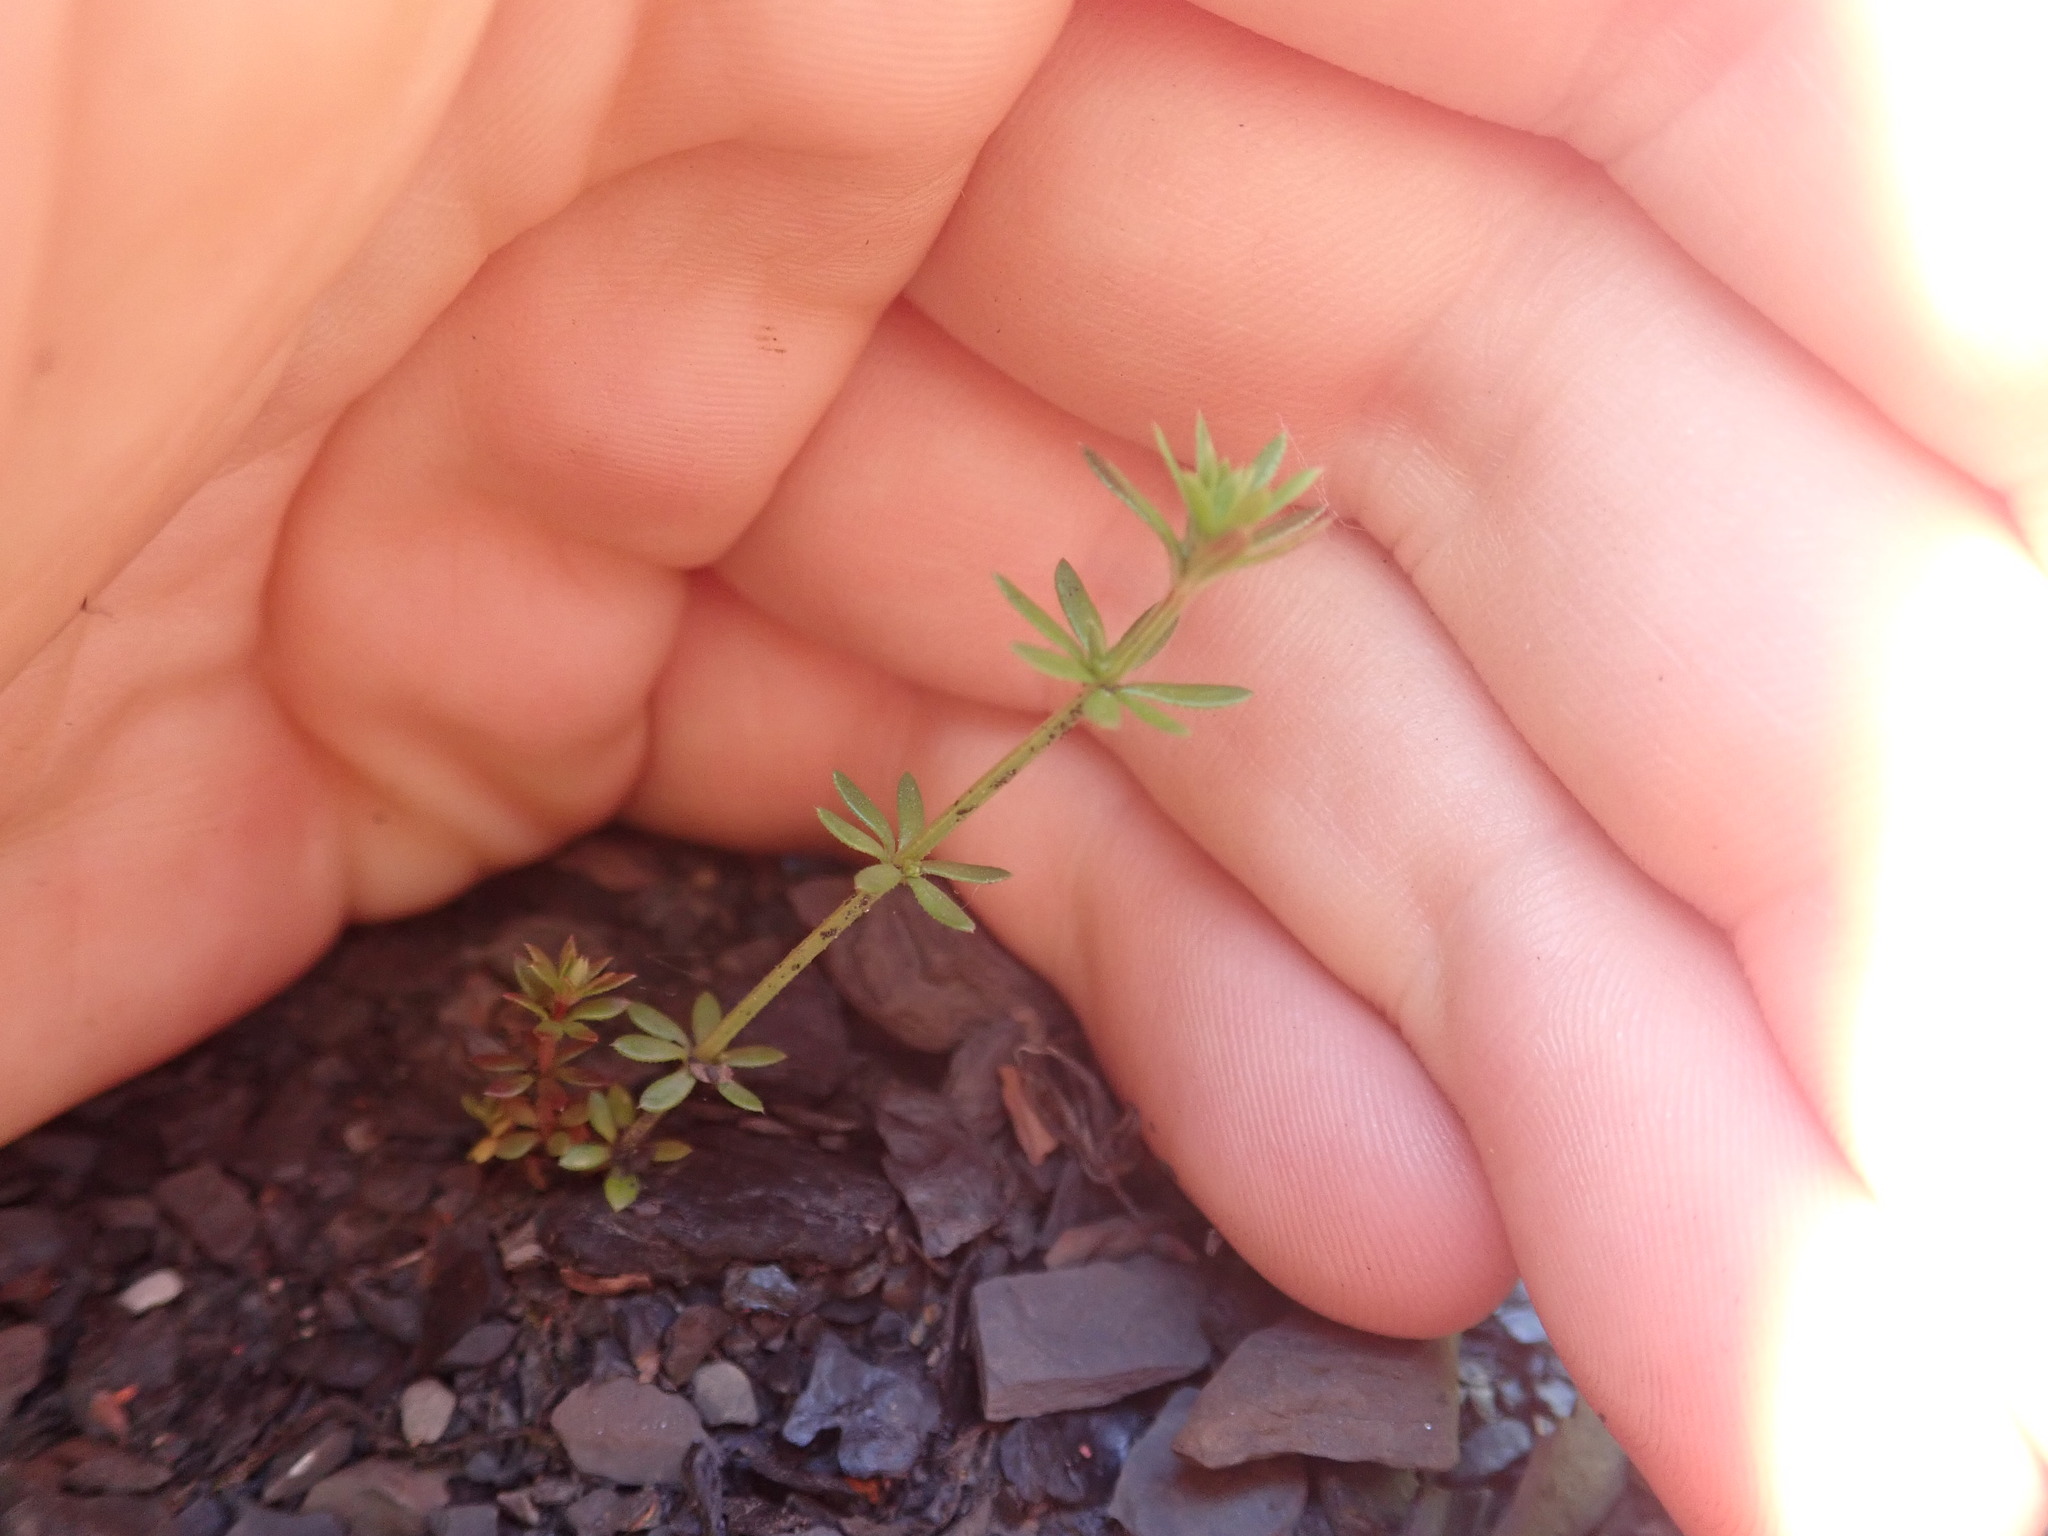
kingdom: Plantae
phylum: Tracheophyta
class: Magnoliopsida
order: Gentianales
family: Rubiaceae
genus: Galium
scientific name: Galium parisiense
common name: Wall bedstraw
